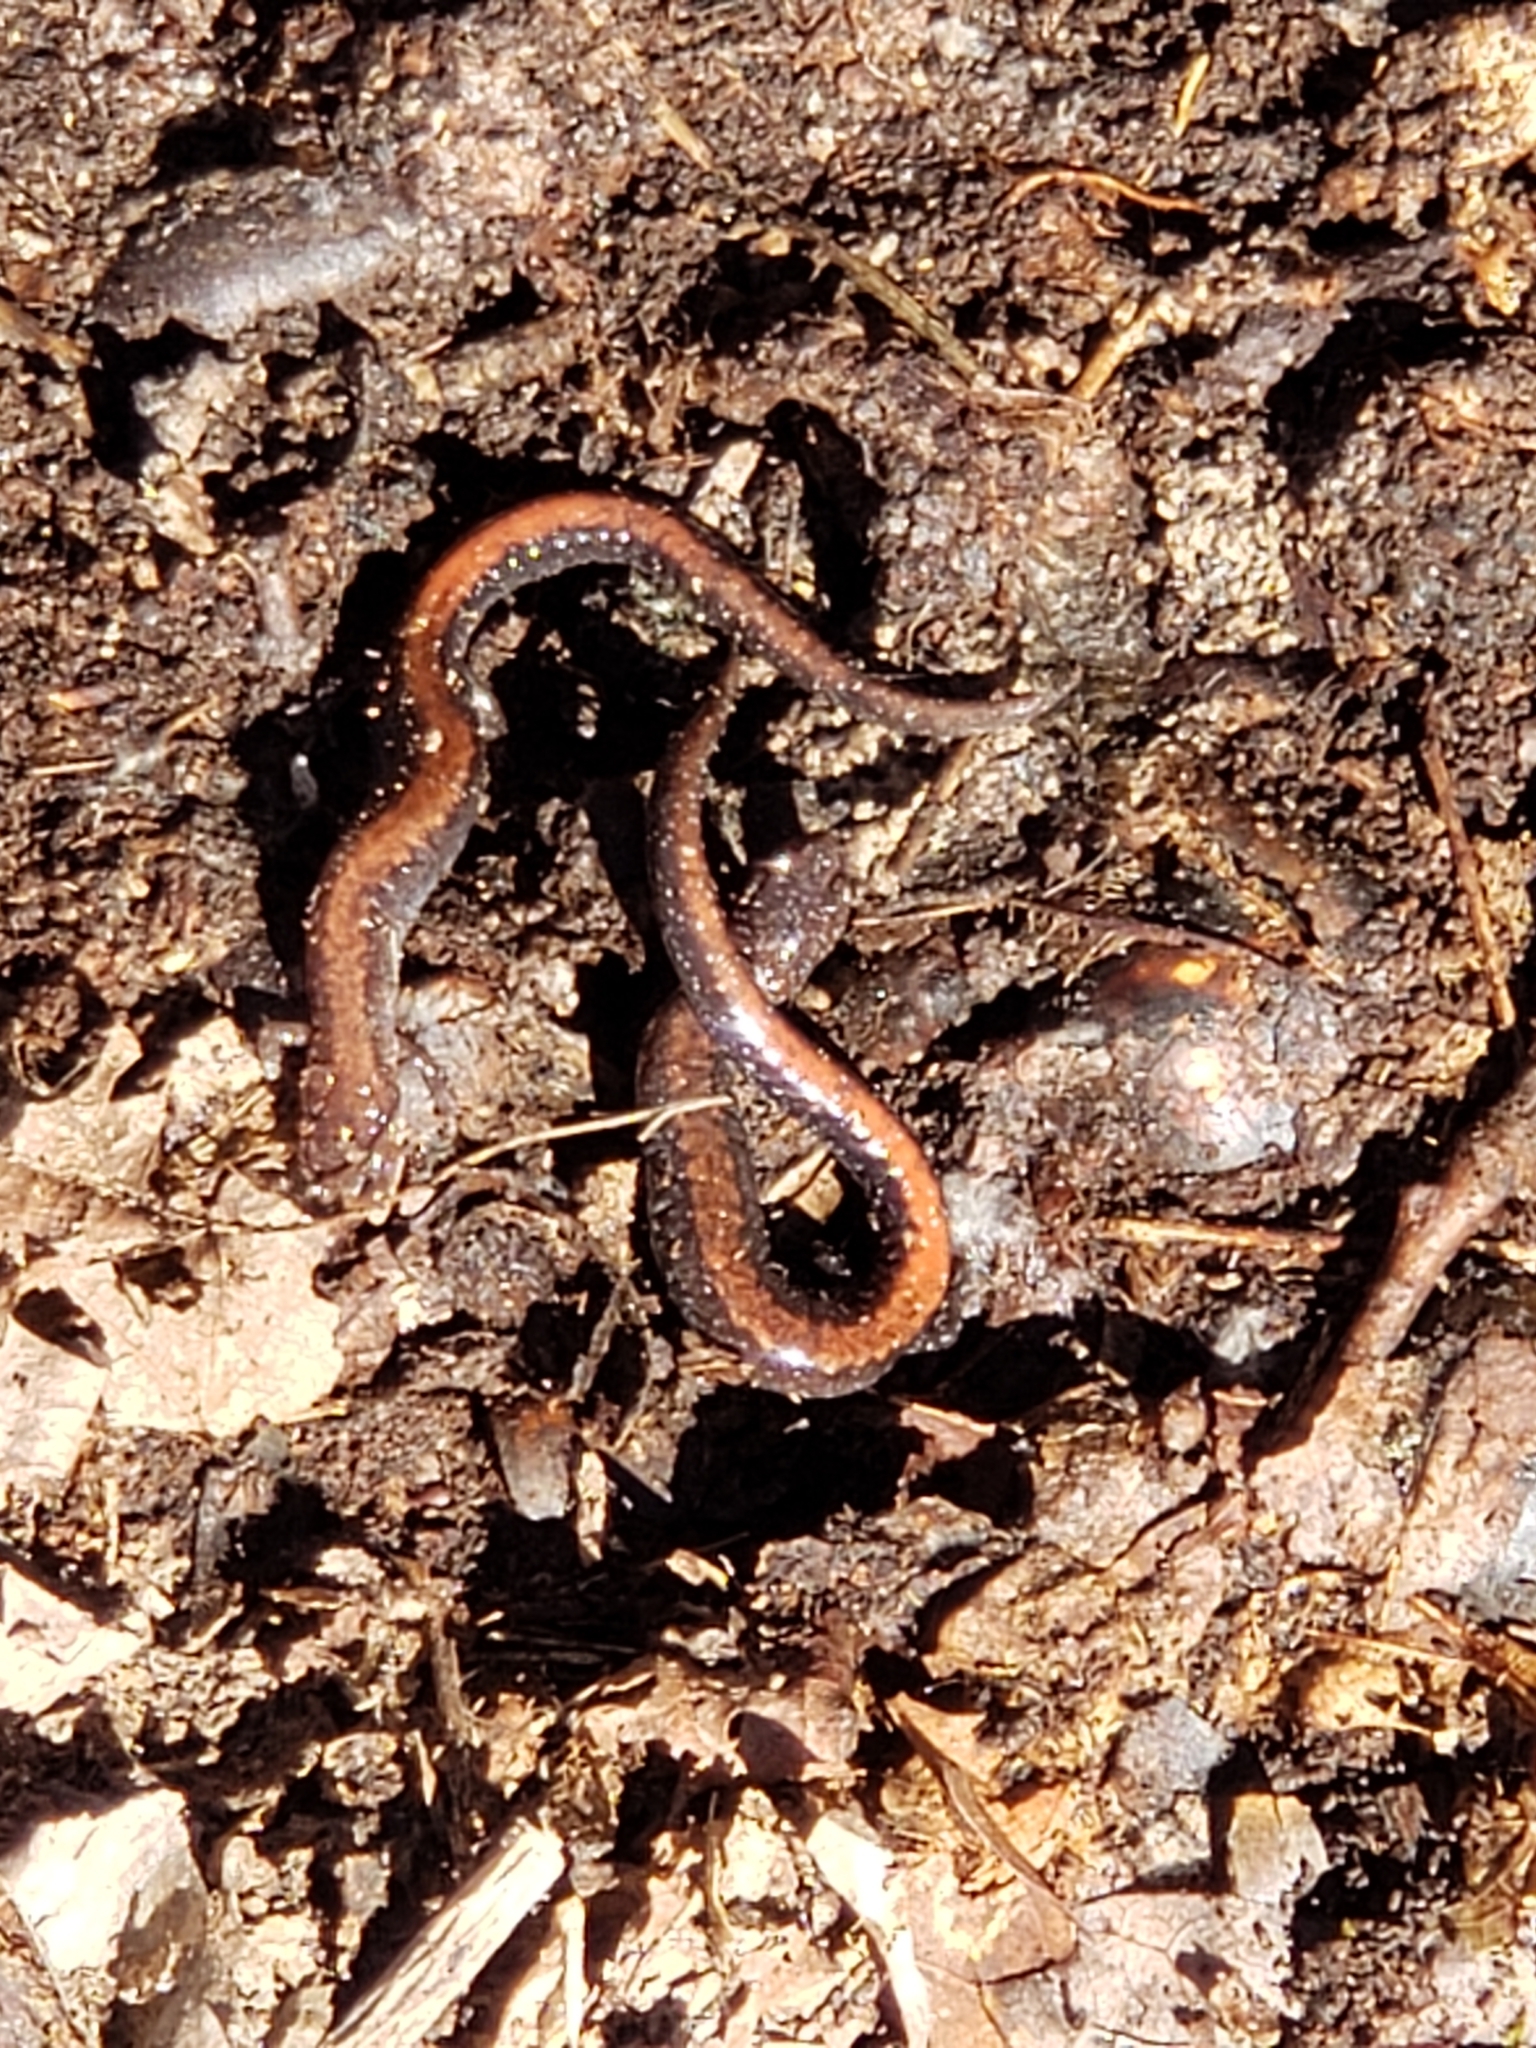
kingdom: Animalia
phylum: Chordata
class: Amphibia
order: Caudata
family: Plethodontidae
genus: Plethodon
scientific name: Plethodon cinereus
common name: Redback salamander
